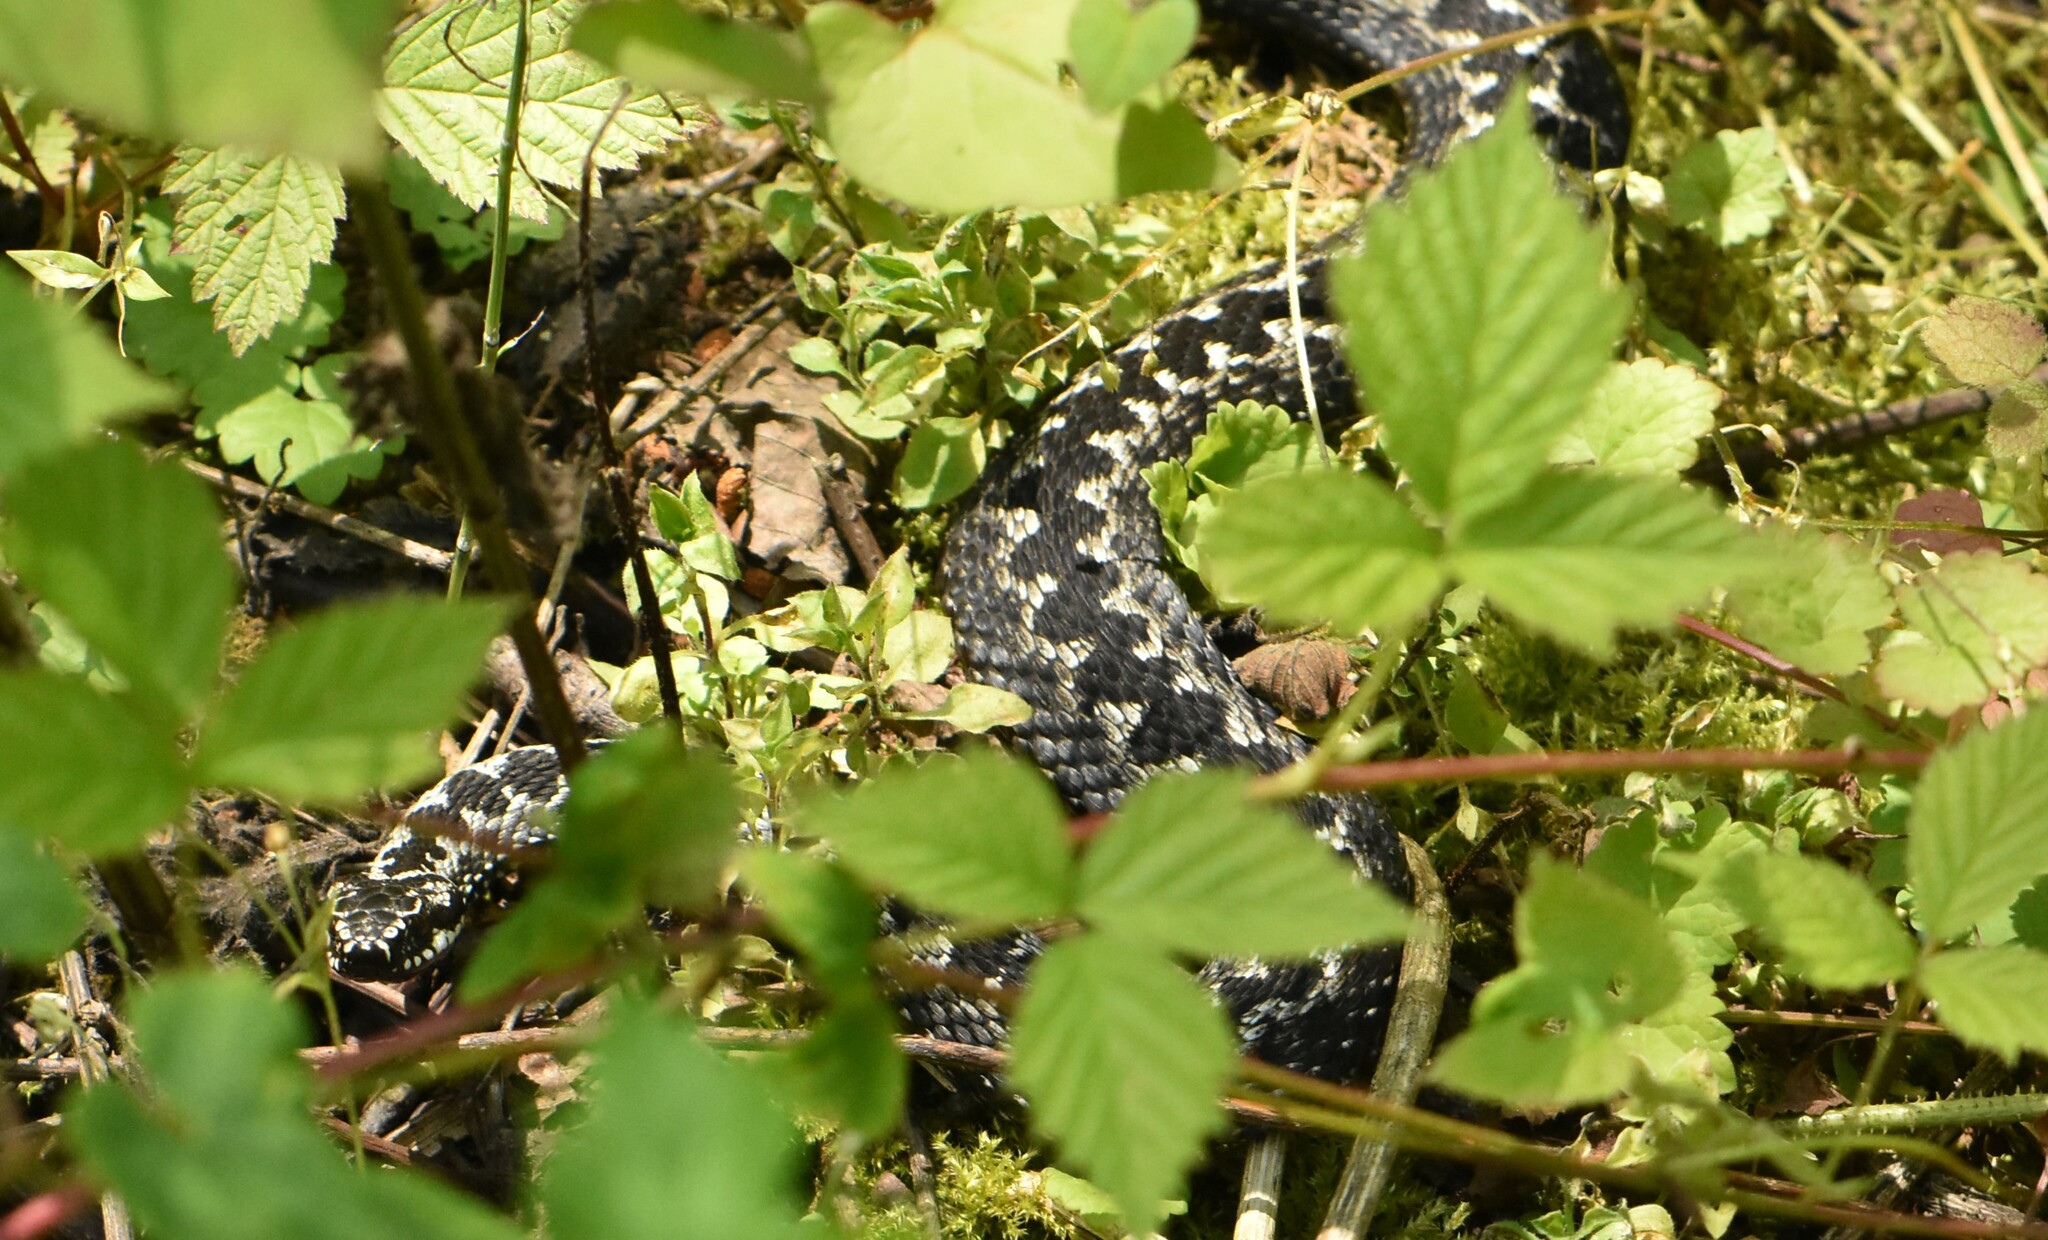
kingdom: Animalia
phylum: Chordata
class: Squamata
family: Viperidae
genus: Vipera
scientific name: Vipera berus
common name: Adder
